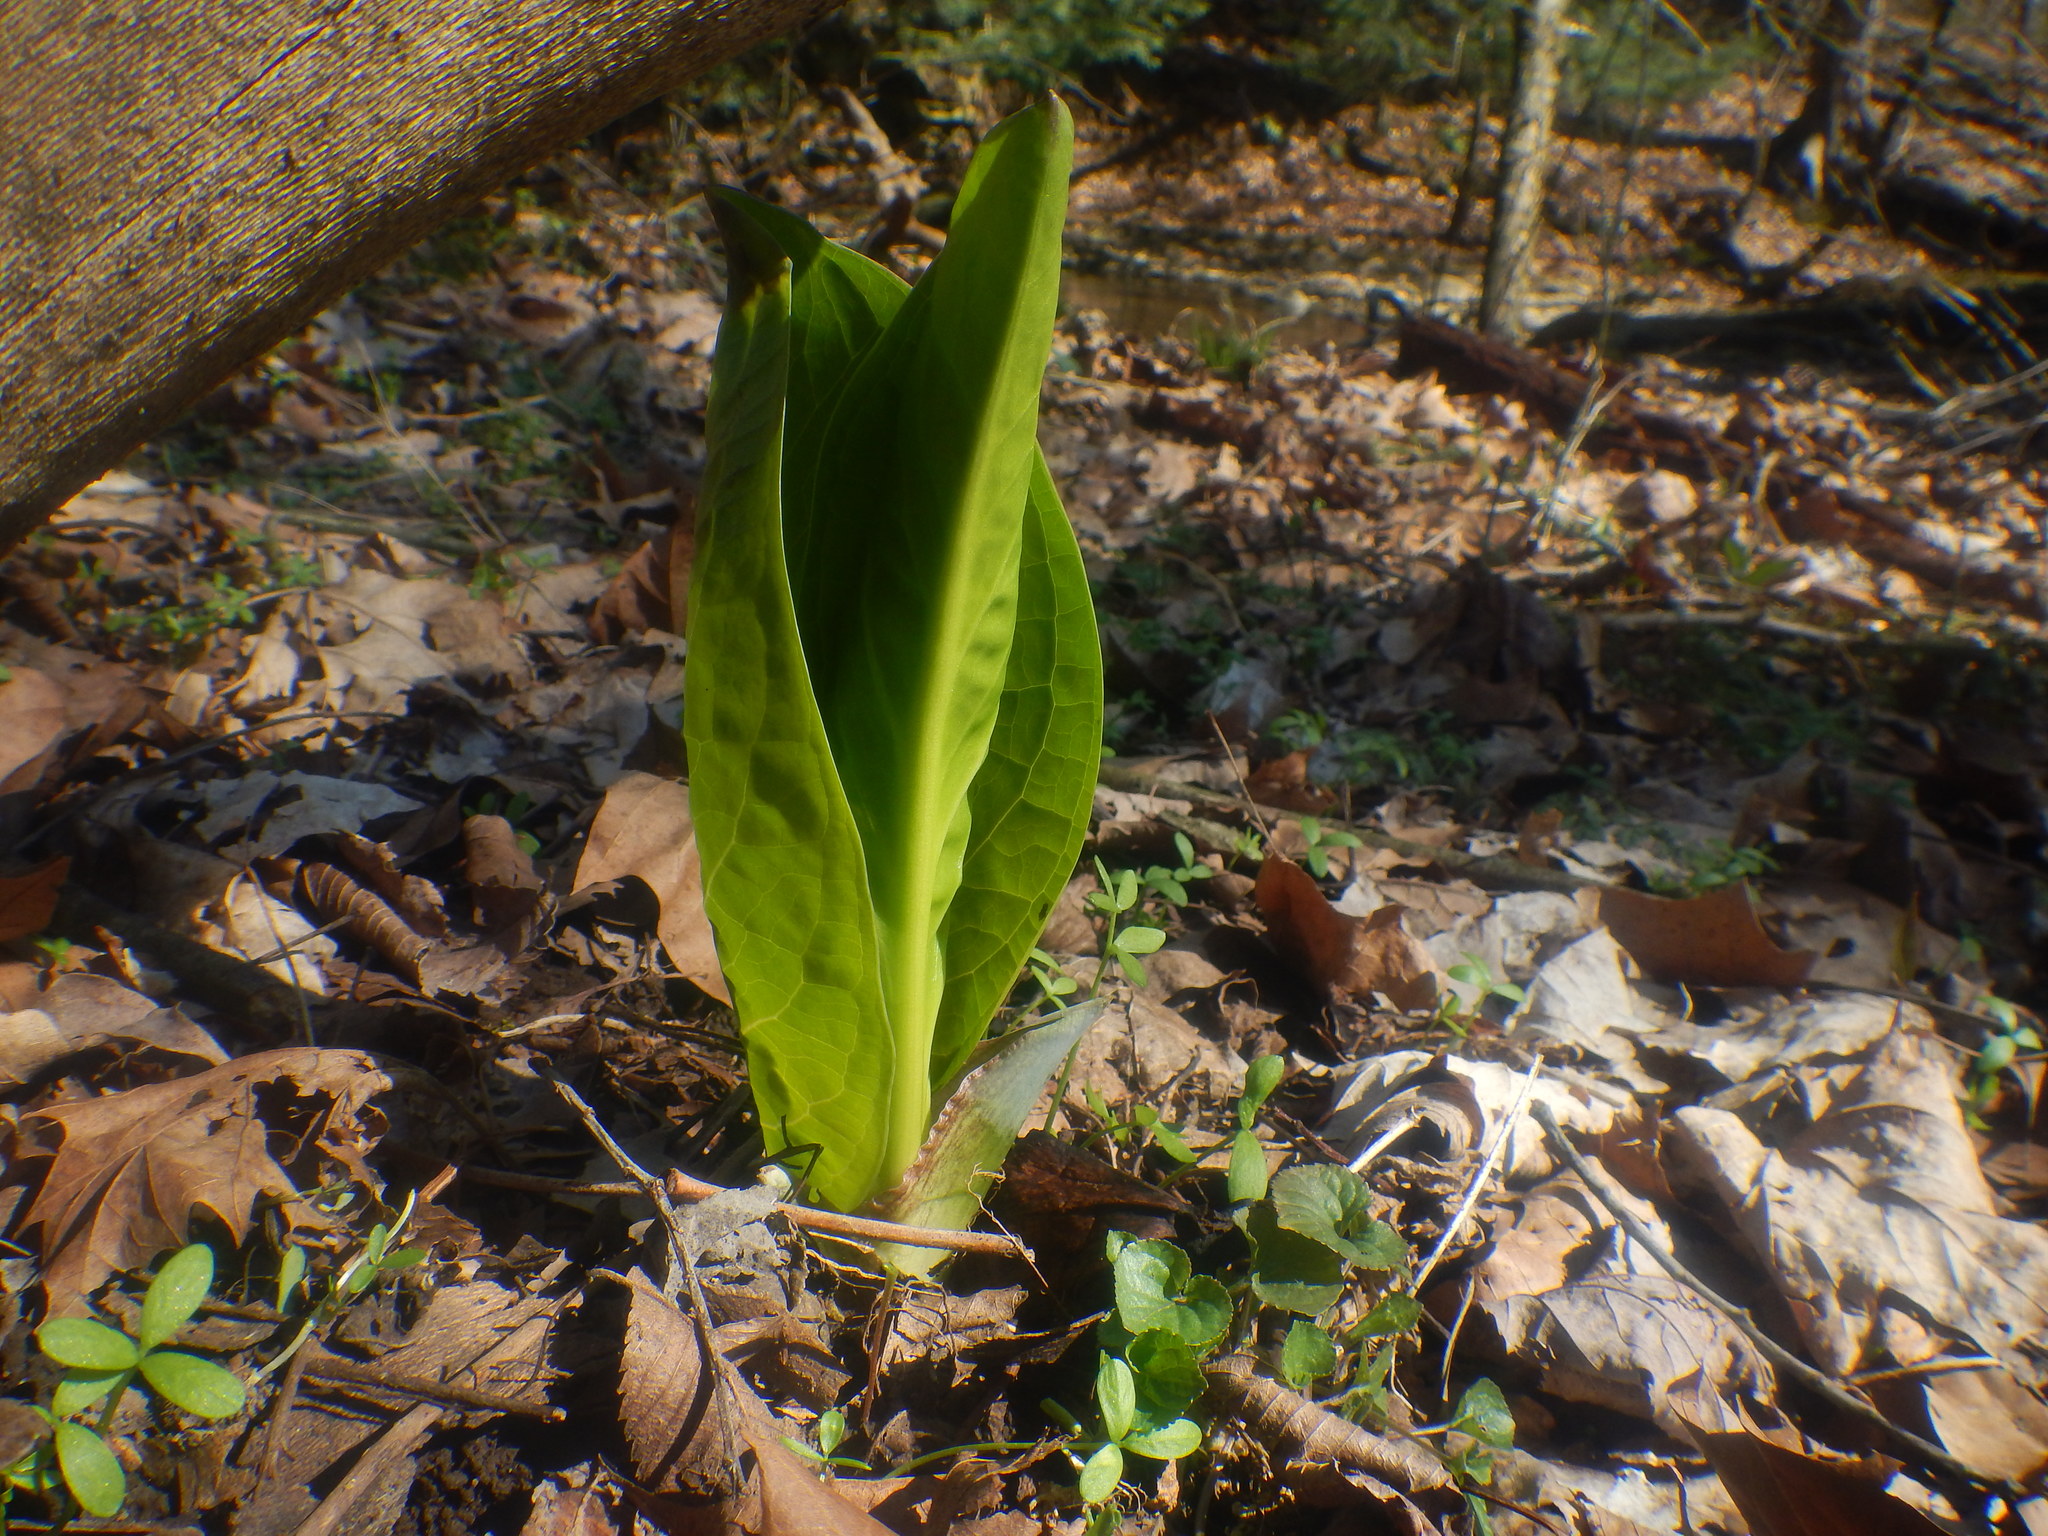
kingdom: Plantae
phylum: Tracheophyta
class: Liliopsida
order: Alismatales
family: Araceae
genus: Symplocarpus
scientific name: Symplocarpus foetidus
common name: Eastern skunk cabbage
